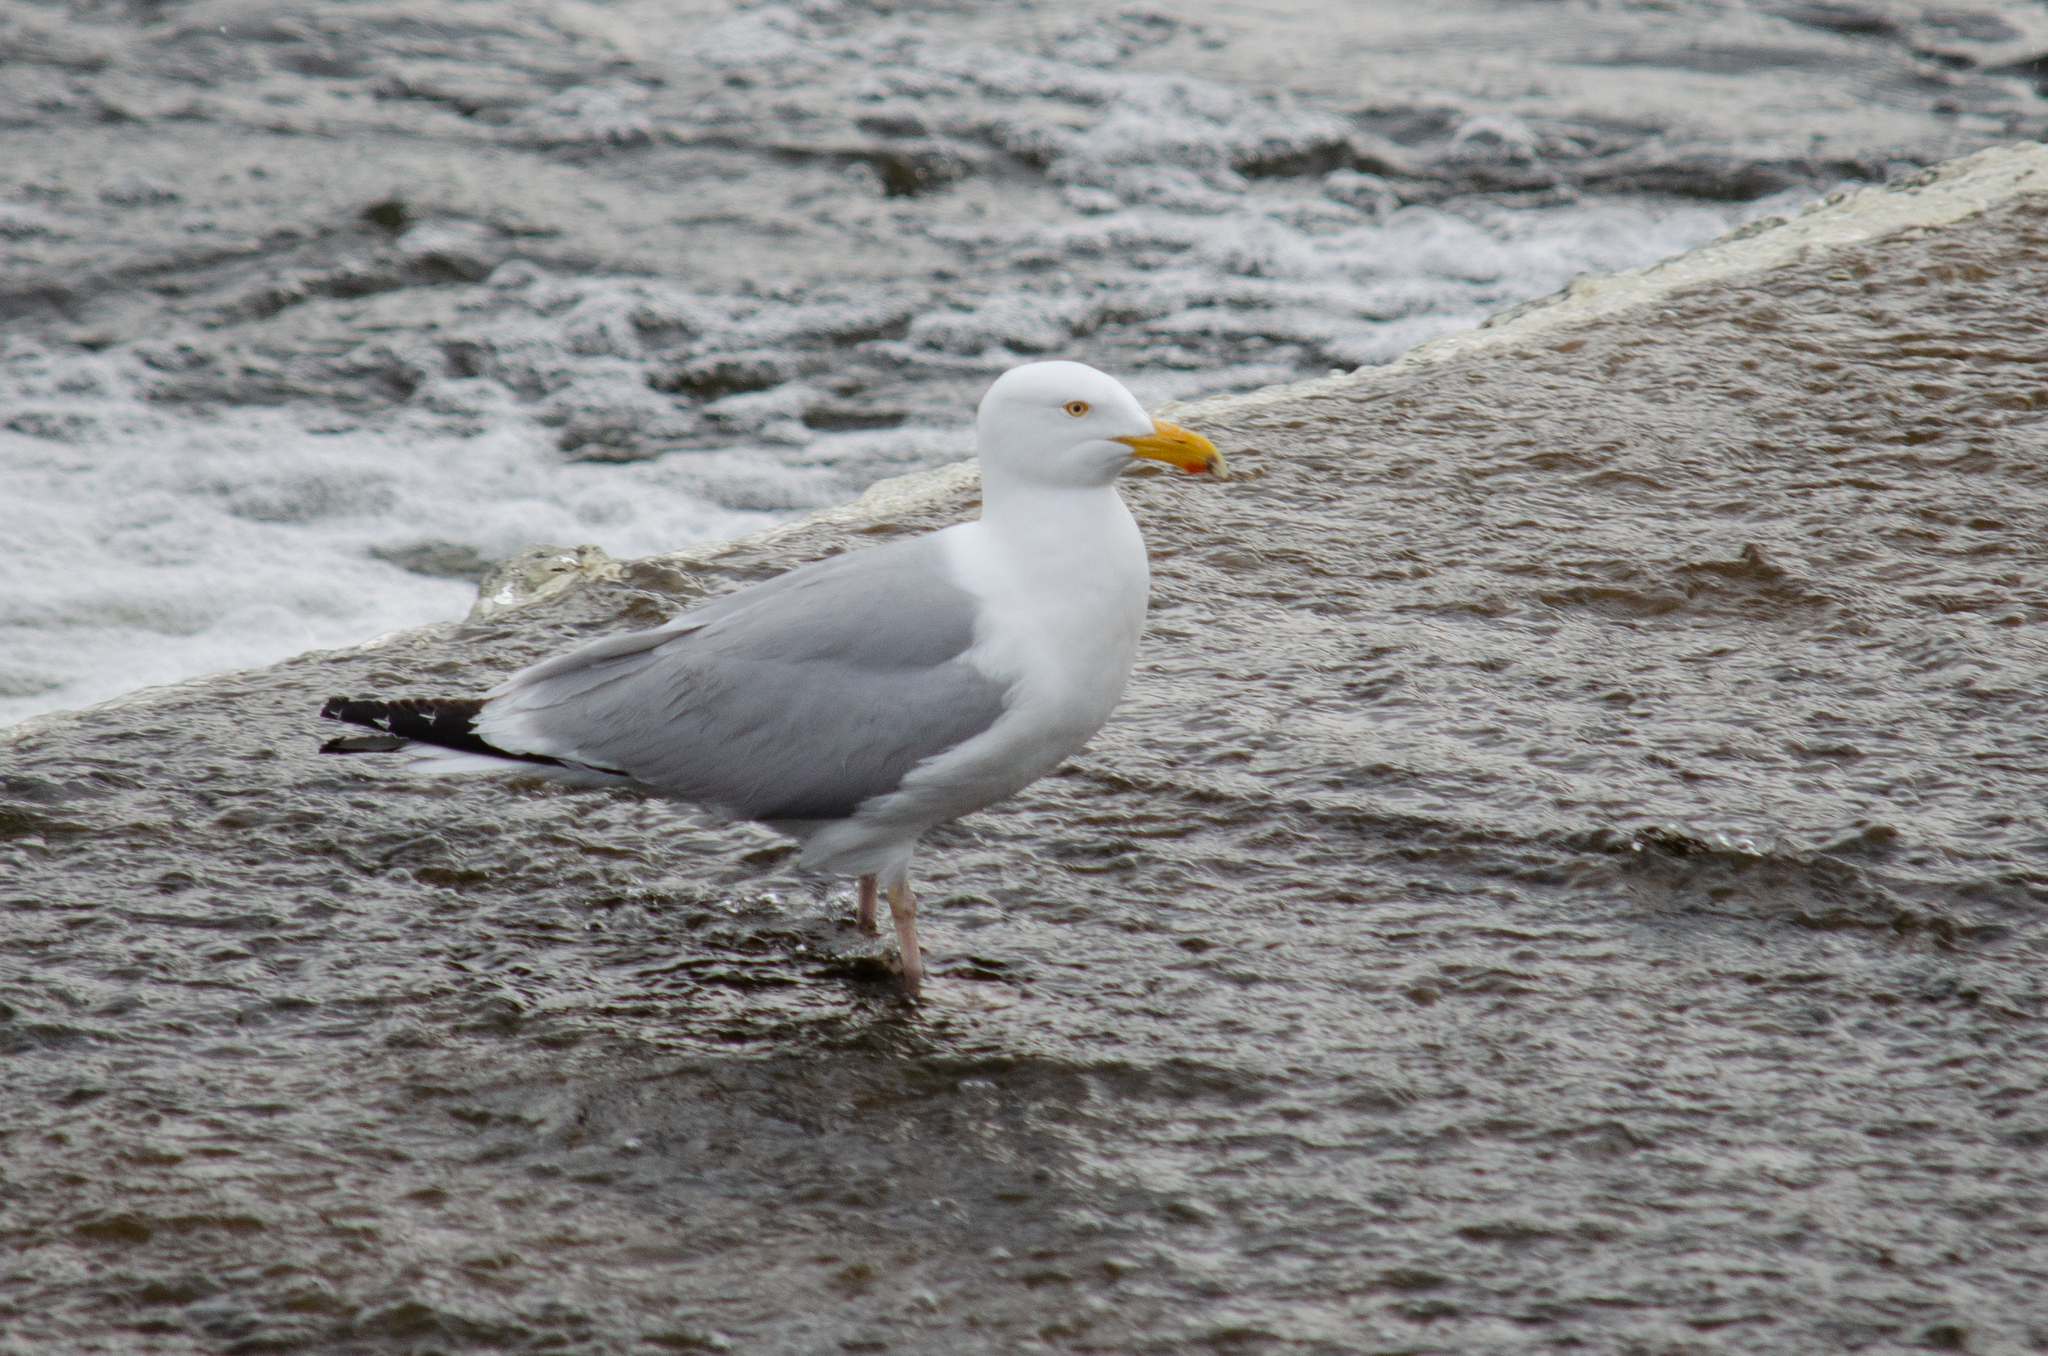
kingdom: Animalia
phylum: Chordata
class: Aves
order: Charadriiformes
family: Laridae
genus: Larus
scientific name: Larus argentatus
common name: Herring gull
